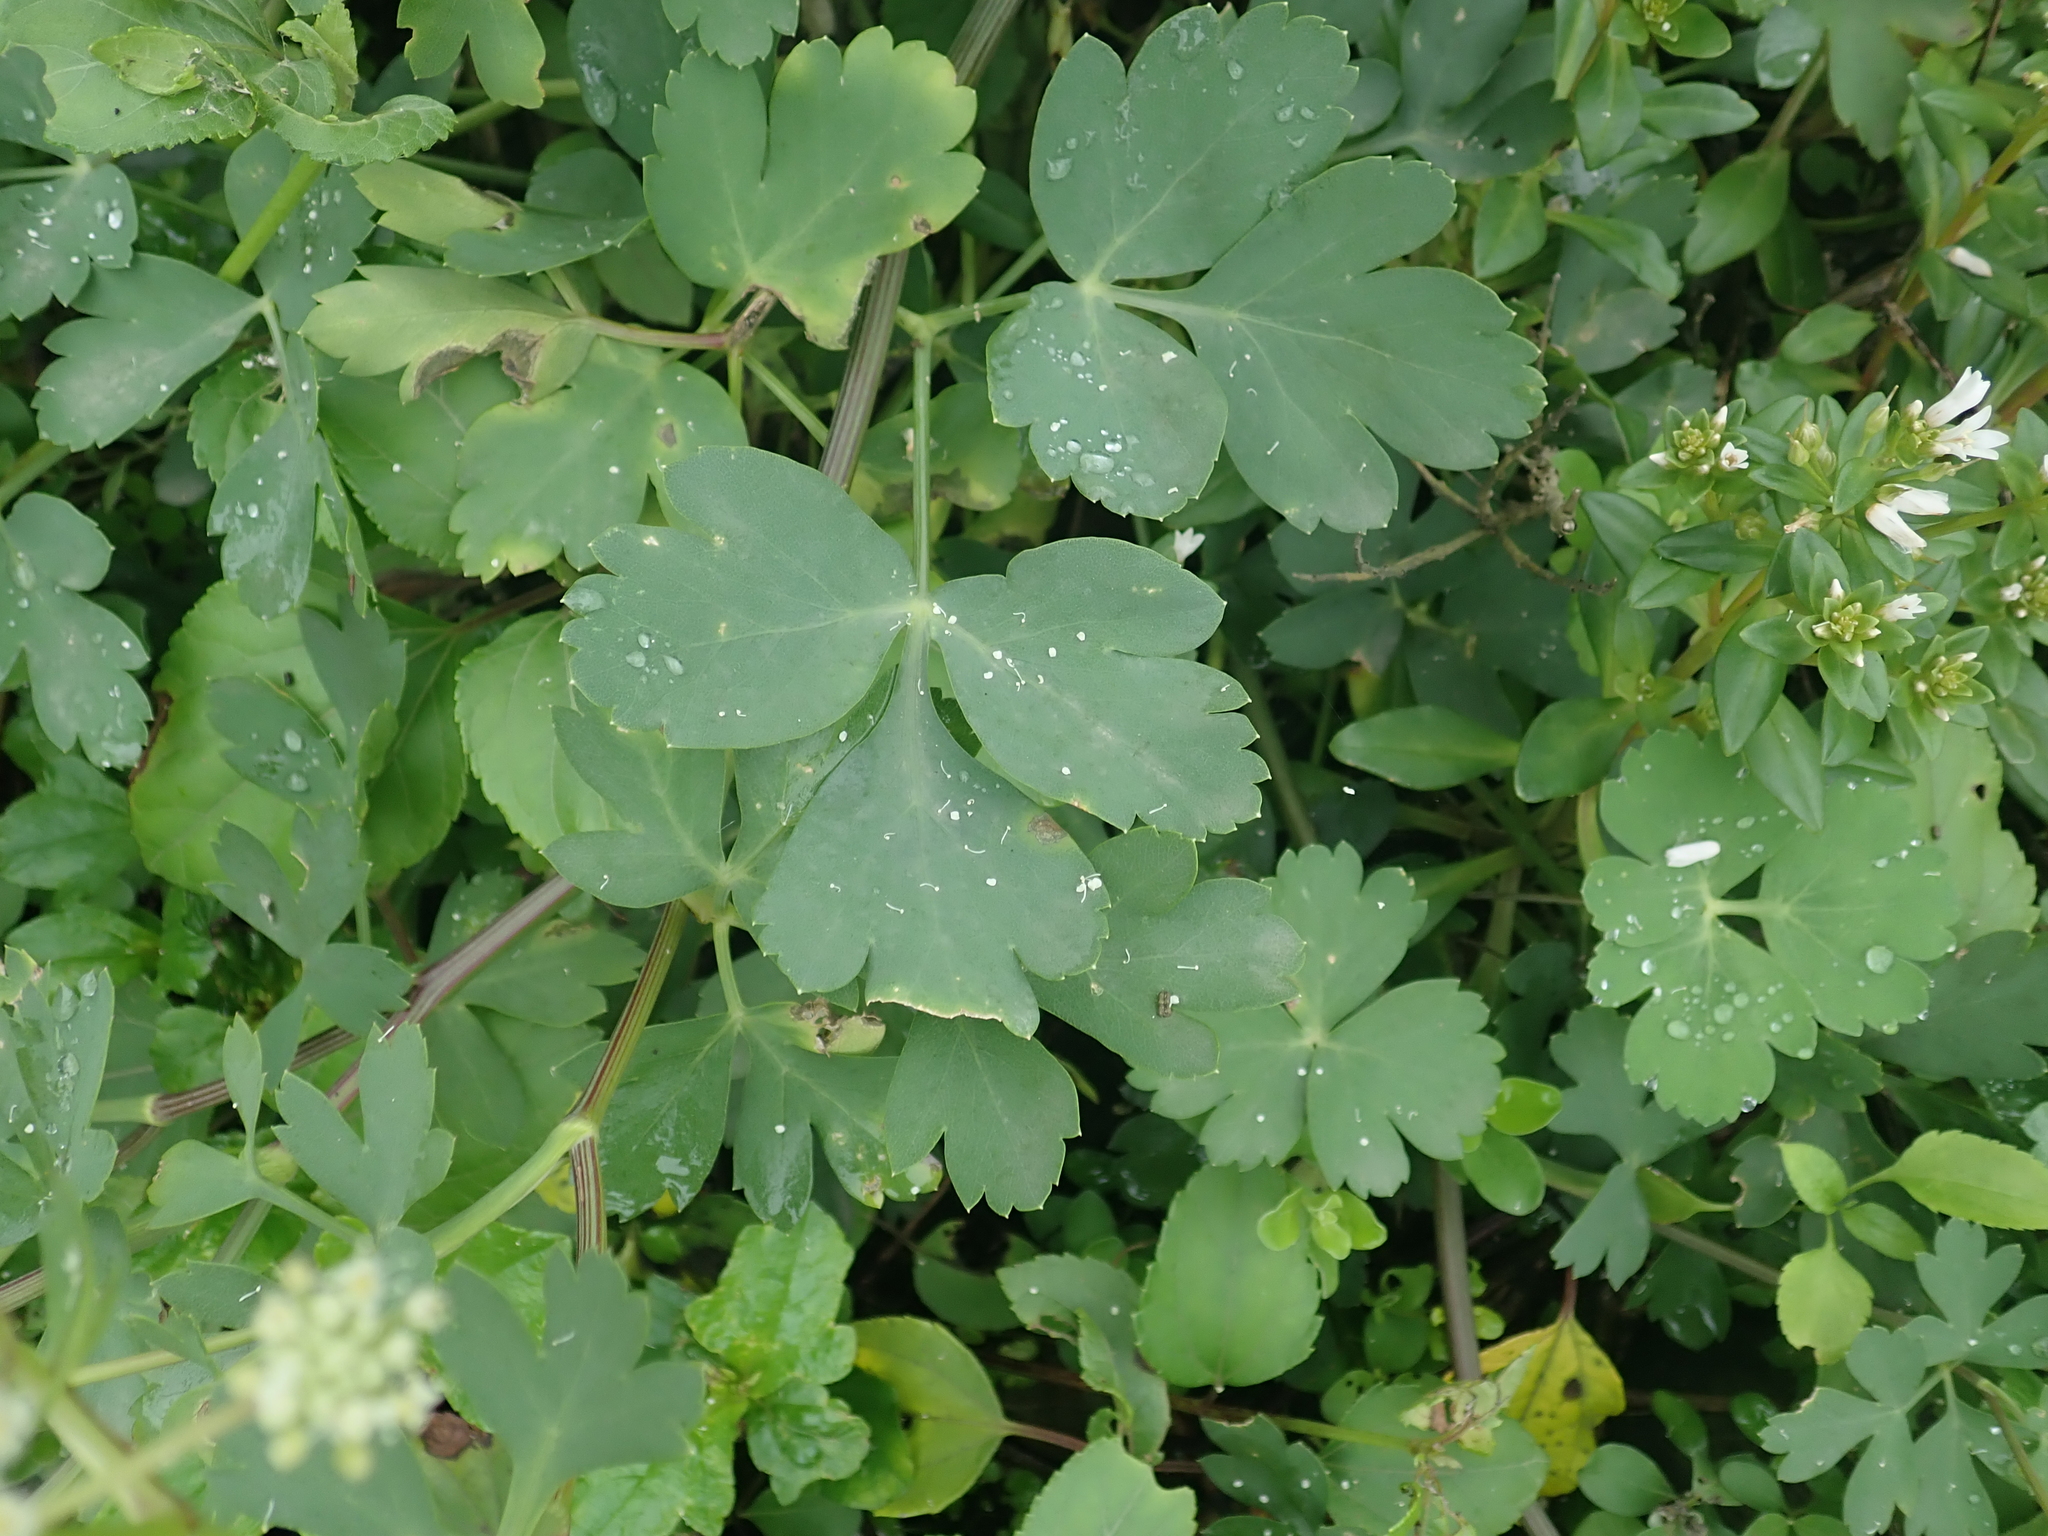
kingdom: Plantae
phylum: Tracheophyta
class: Magnoliopsida
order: Apiales
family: Apiaceae
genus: Peucedanum
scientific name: Peucedanum japonicum
